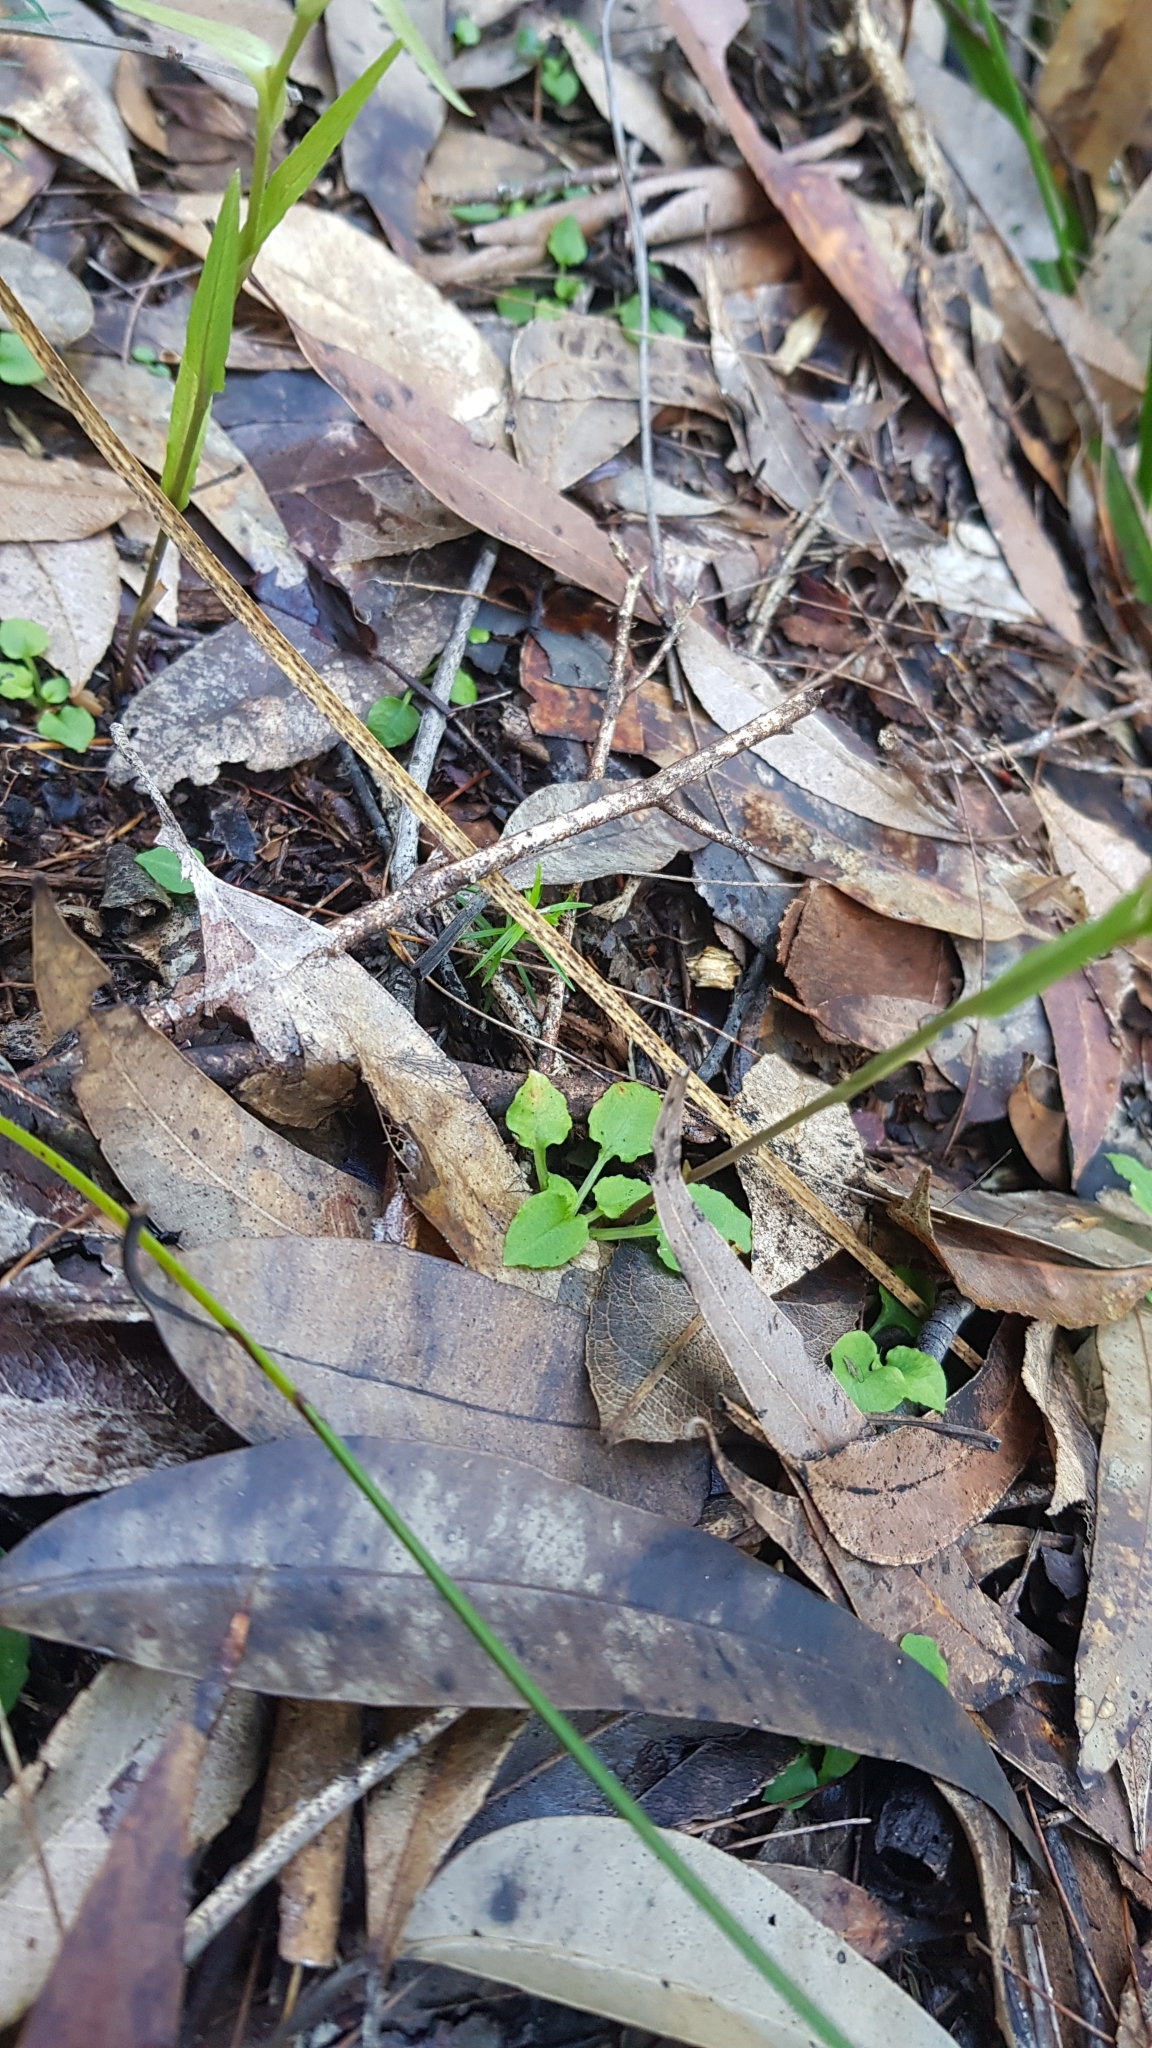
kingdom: Plantae
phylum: Tracheophyta
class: Liliopsida
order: Asparagales
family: Orchidaceae
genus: Pterostylis
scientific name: Pterostylis grandiflora
